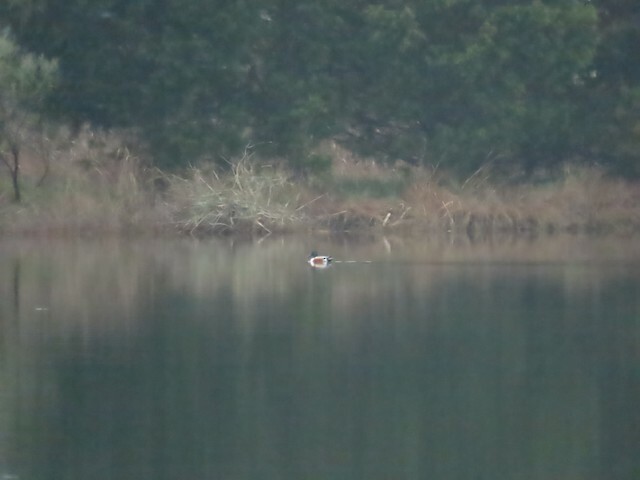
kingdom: Animalia
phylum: Chordata
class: Aves
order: Anseriformes
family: Anatidae
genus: Spatula
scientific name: Spatula clypeata
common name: Northern shoveler
